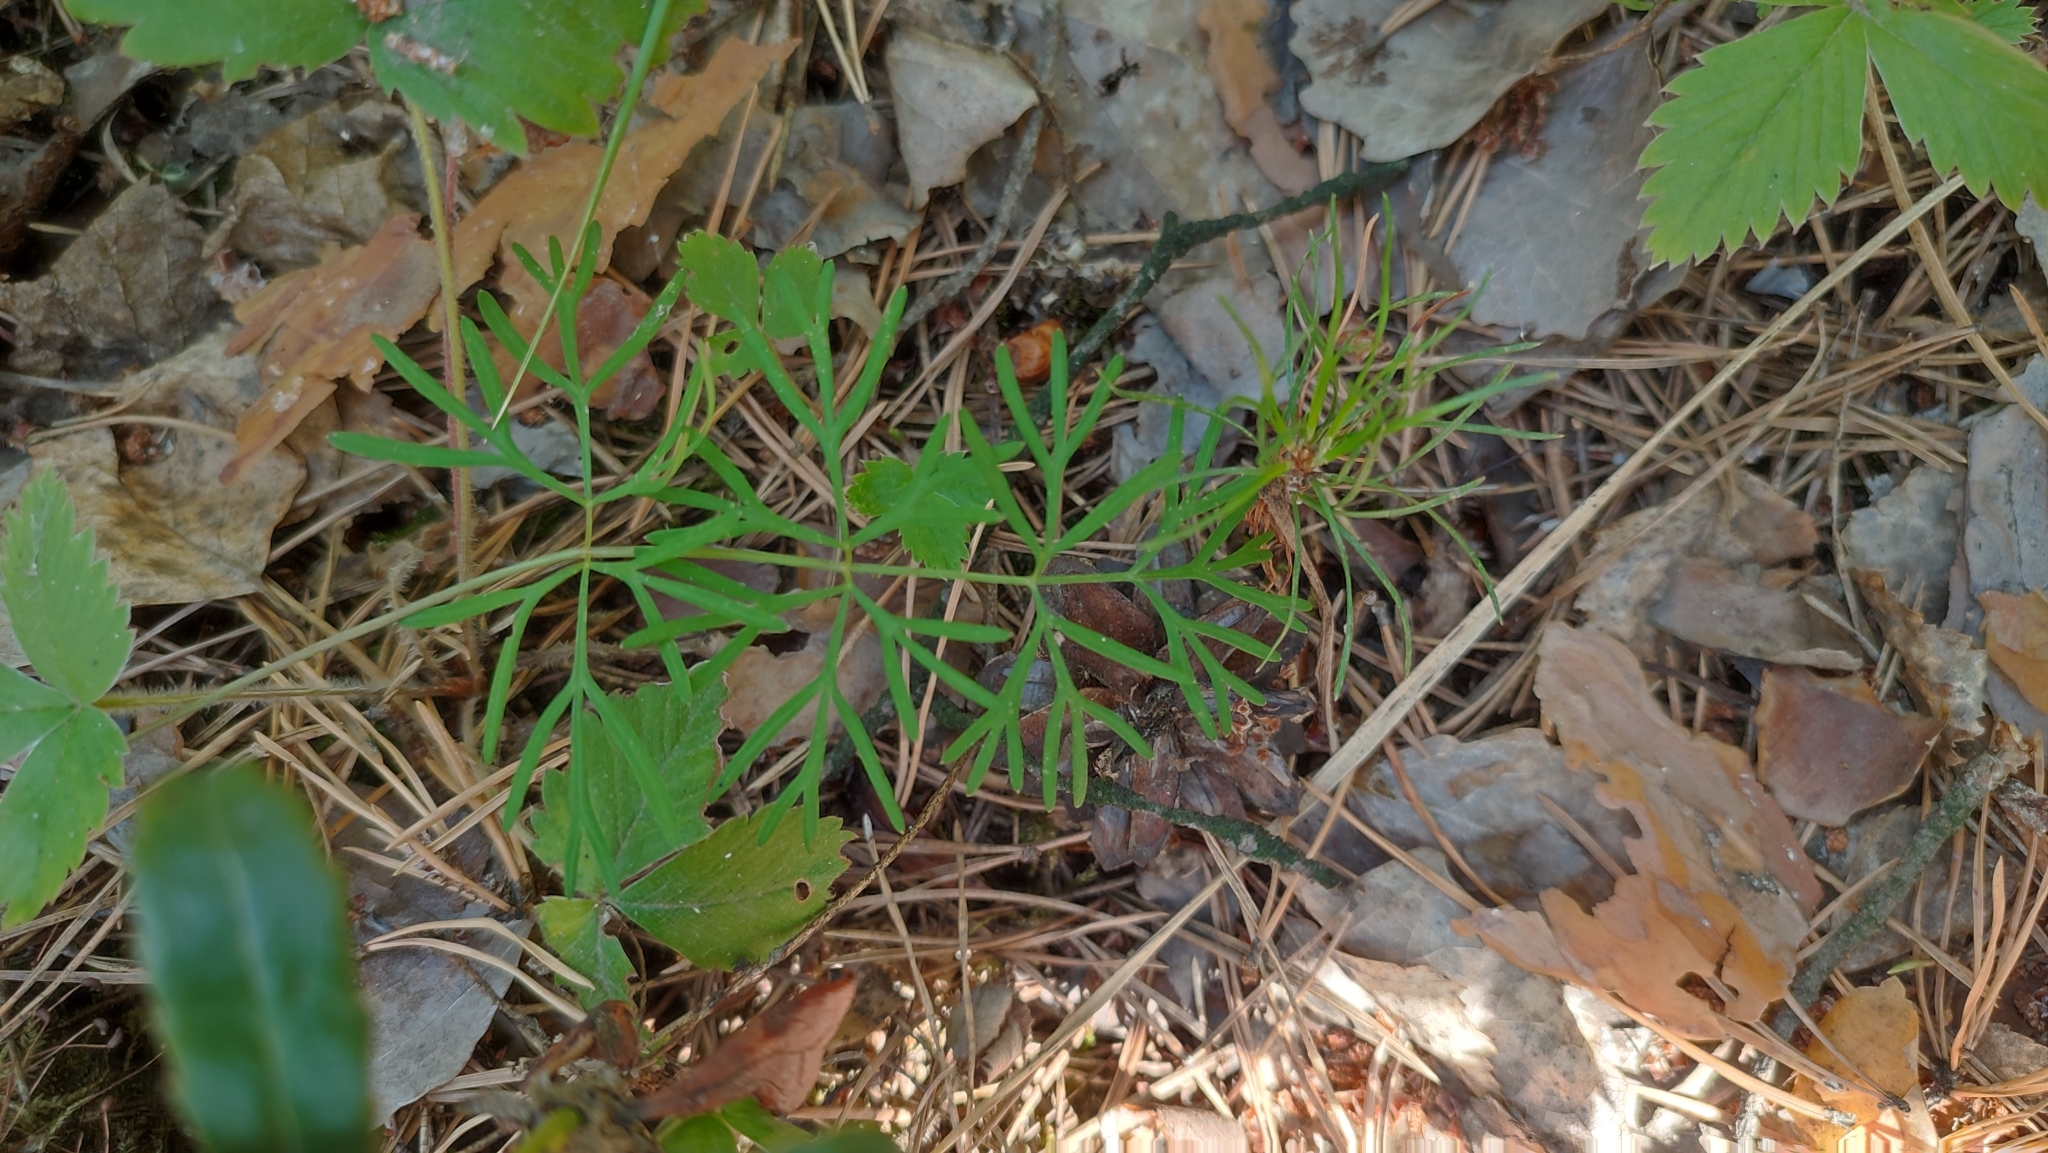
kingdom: Plantae
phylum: Tracheophyta
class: Magnoliopsida
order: Apiales
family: Apiaceae
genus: Kadenia
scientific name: Kadenia dubia
